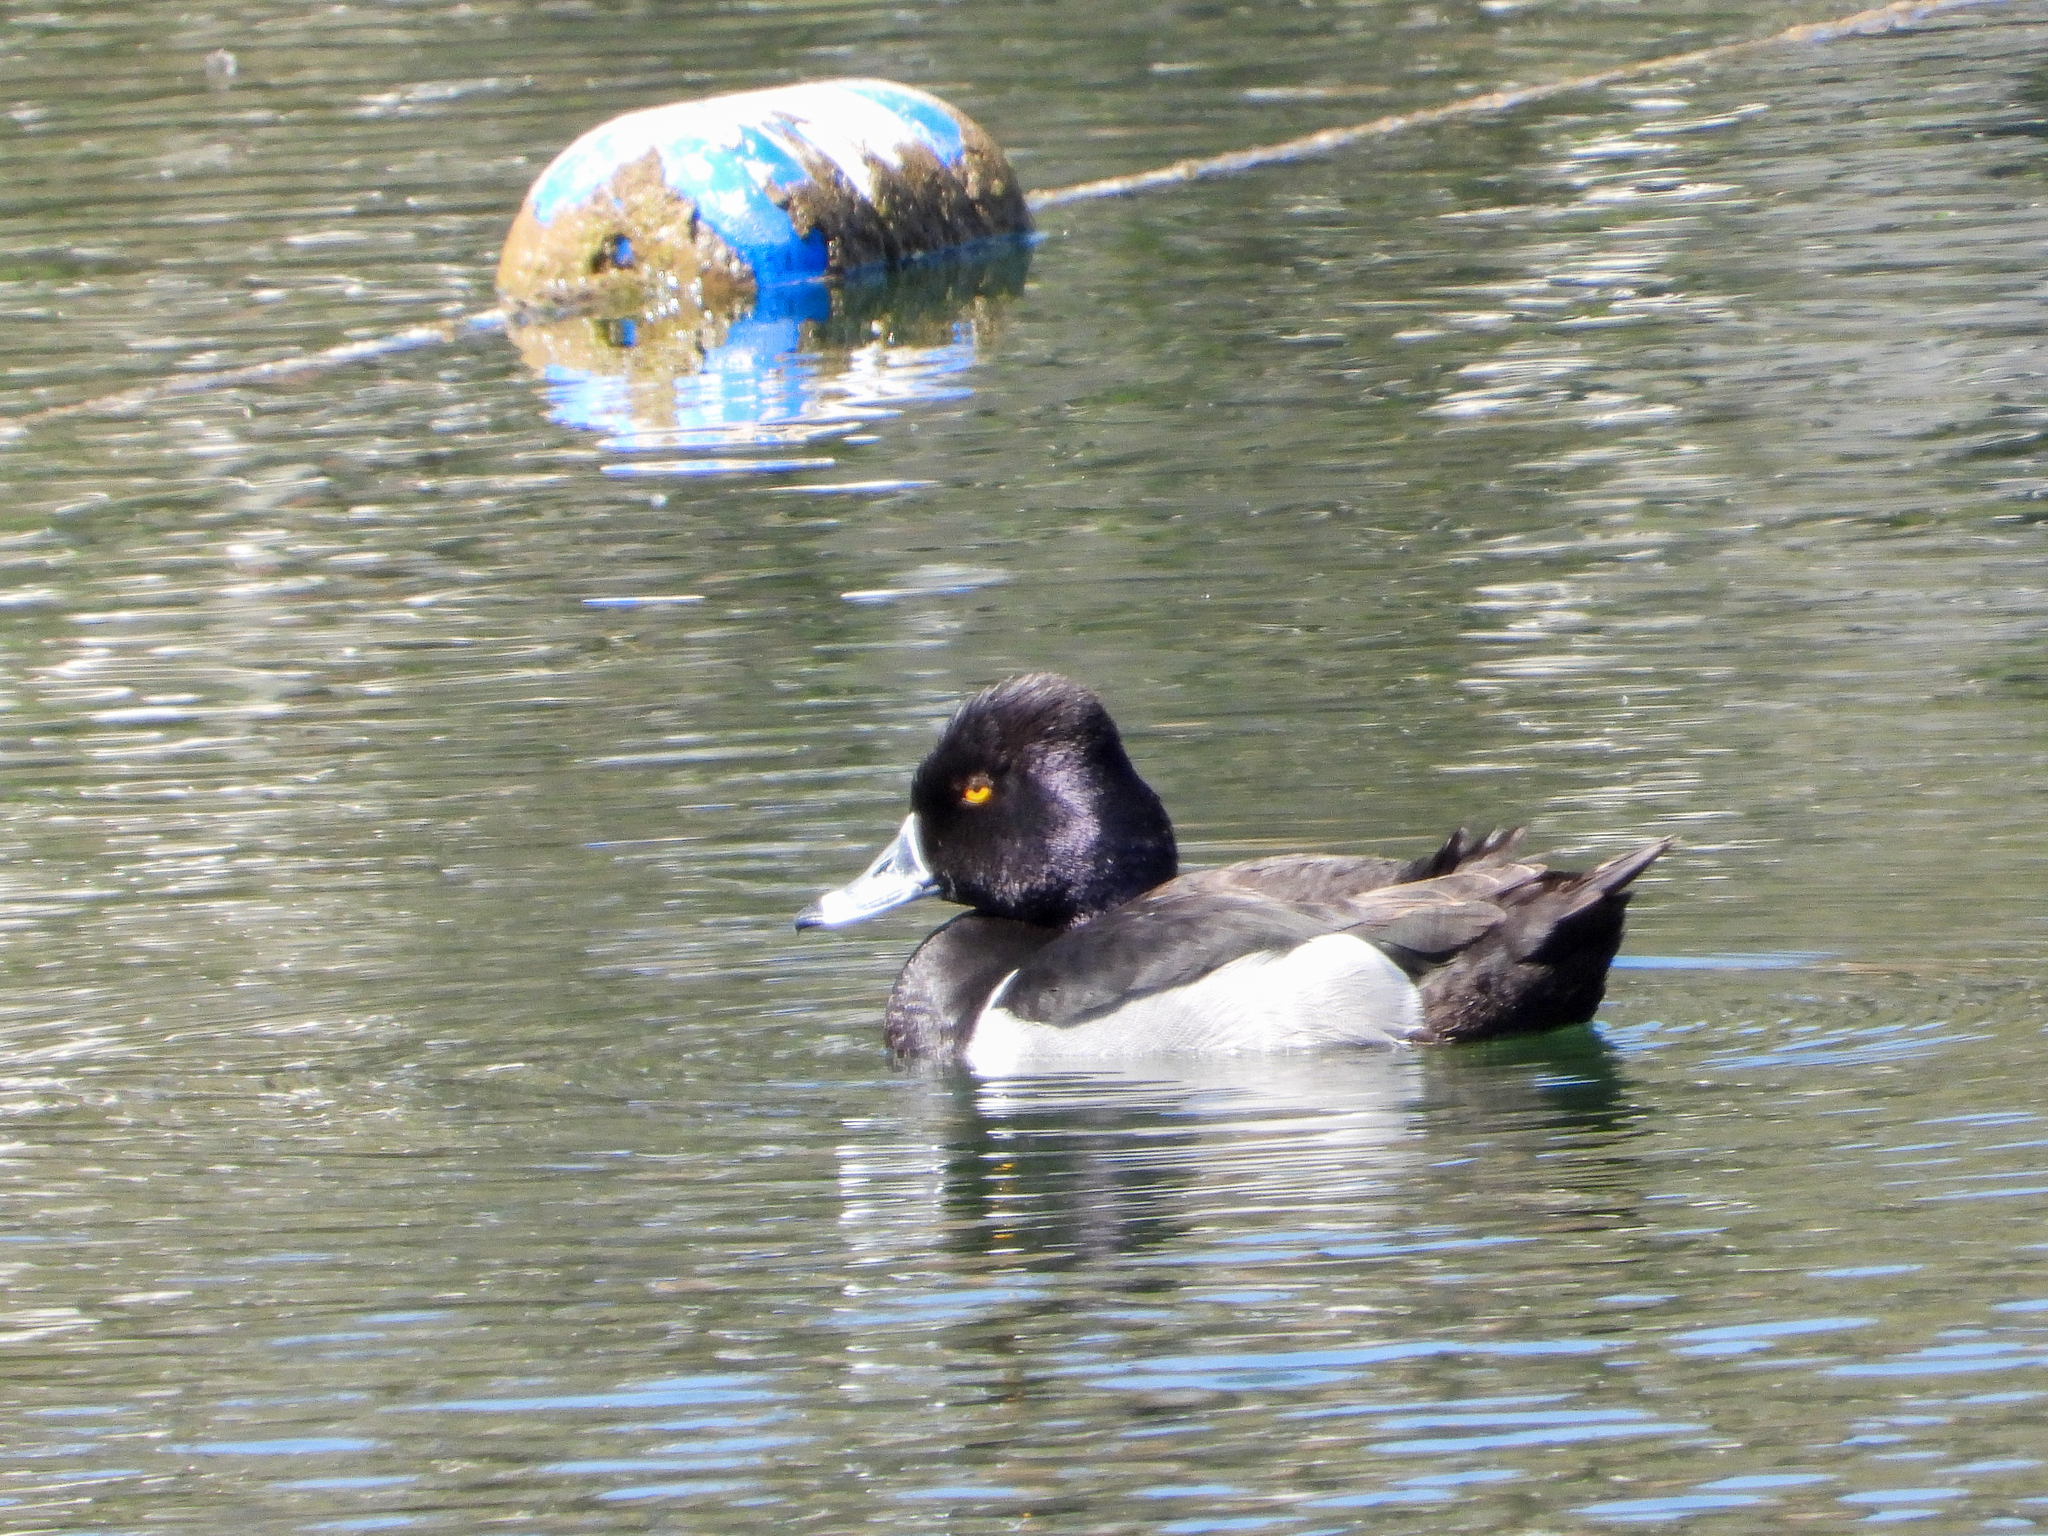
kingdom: Animalia
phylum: Chordata
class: Aves
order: Anseriformes
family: Anatidae
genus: Aythya
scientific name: Aythya collaris
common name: Ring-necked duck
